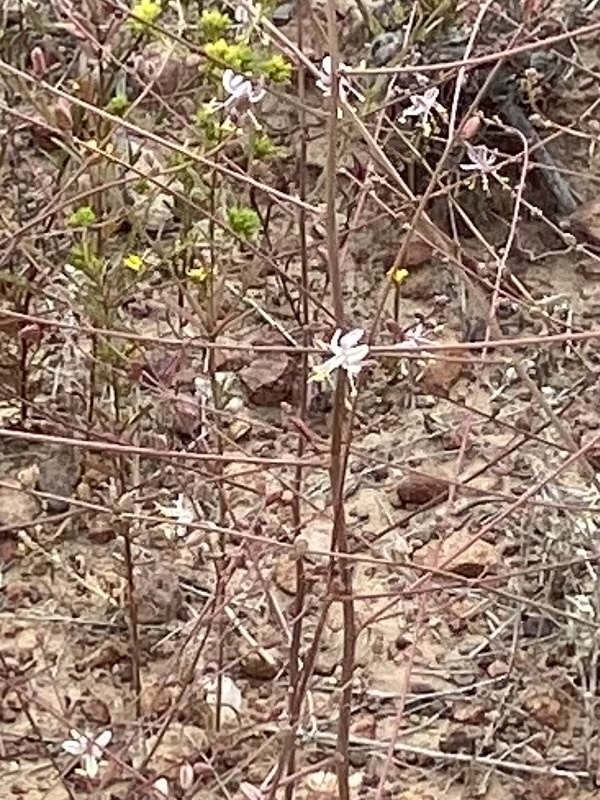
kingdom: Plantae
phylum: Tracheophyta
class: Liliopsida
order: Asparagales
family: Asparagaceae
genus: Hooveria
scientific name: Hooveria parviflora
